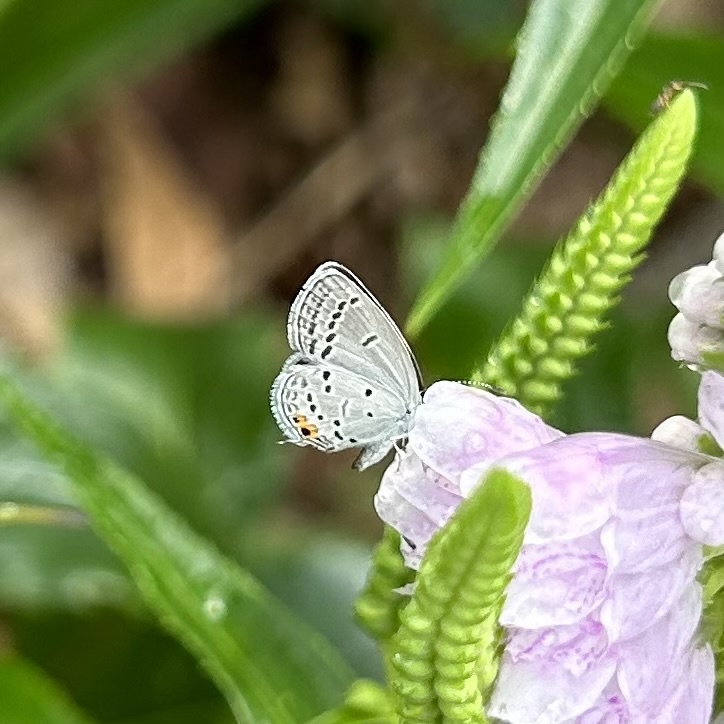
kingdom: Animalia
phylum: Arthropoda
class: Insecta
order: Lepidoptera
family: Lycaenidae
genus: Elkalyce
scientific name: Elkalyce comyntas
